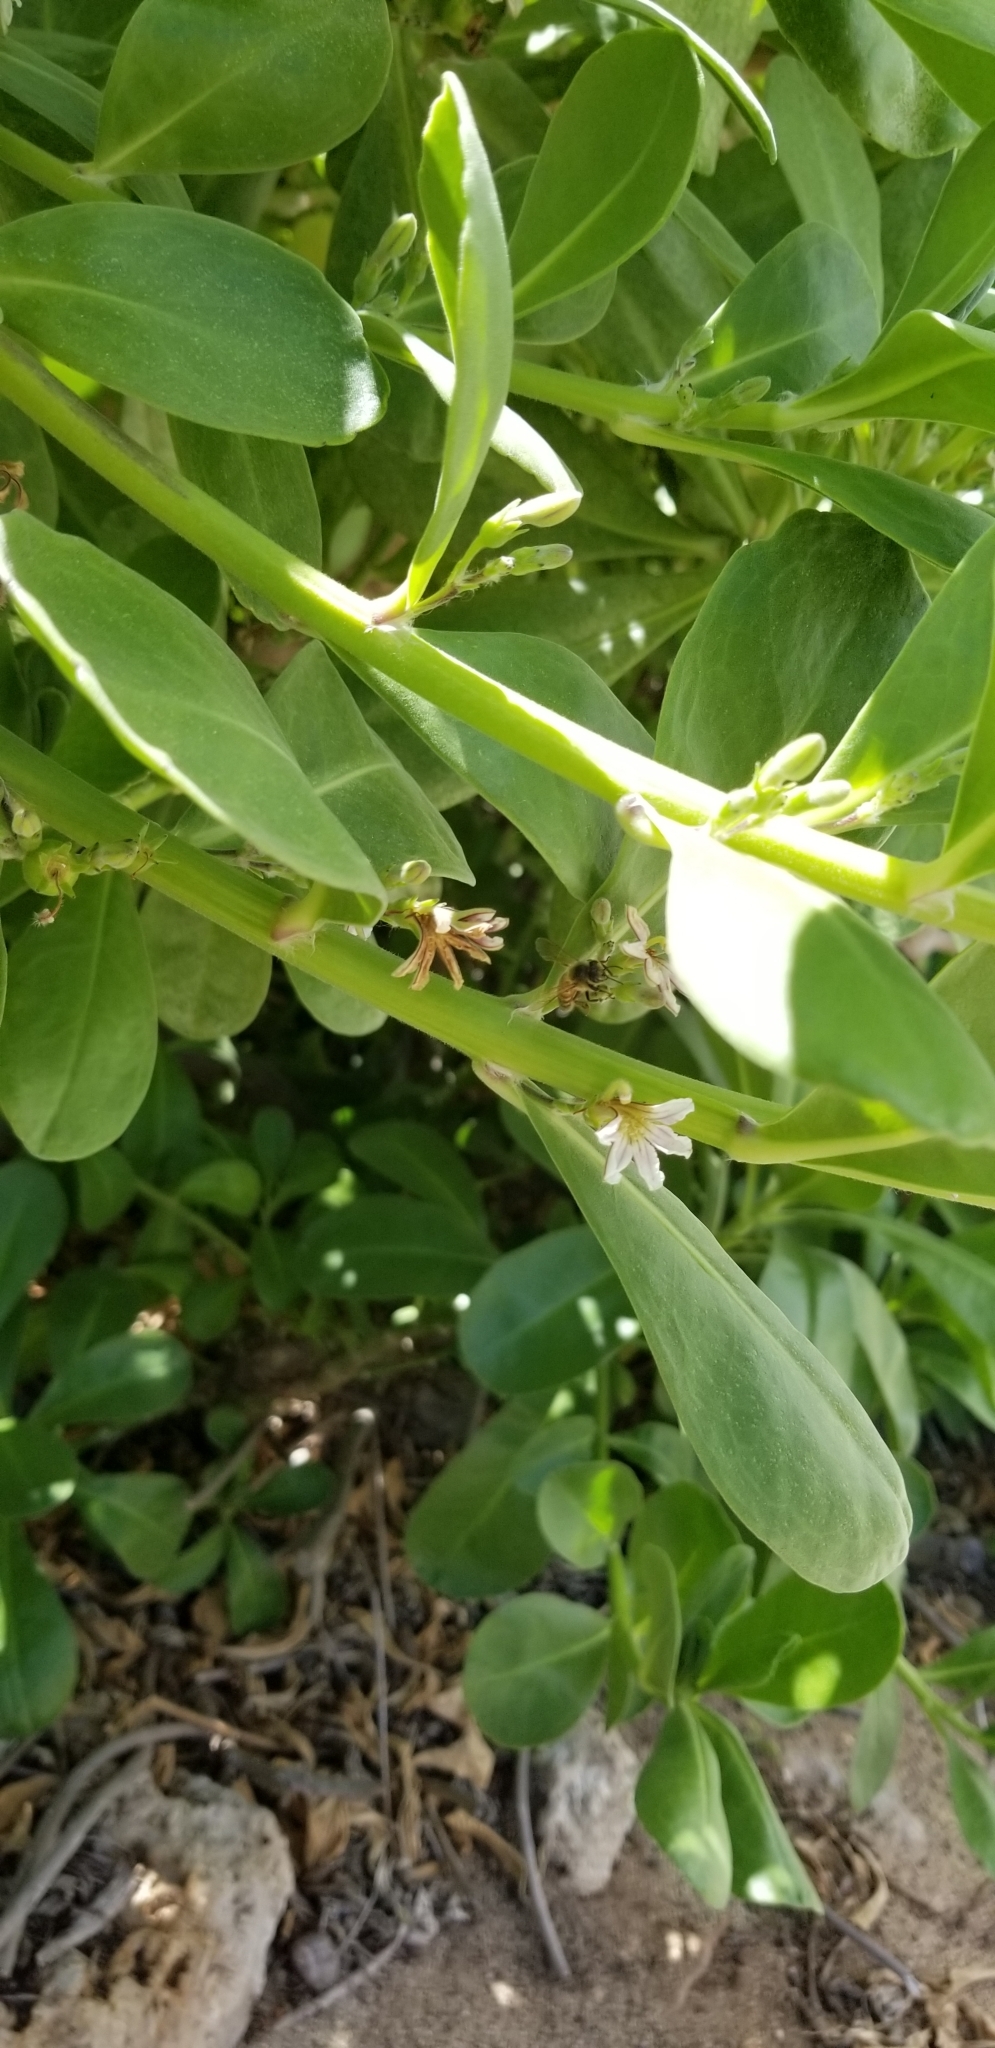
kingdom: Plantae
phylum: Tracheophyta
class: Magnoliopsida
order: Asterales
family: Goodeniaceae
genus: Scaevola
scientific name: Scaevola taccada
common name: Sea lettucetree
